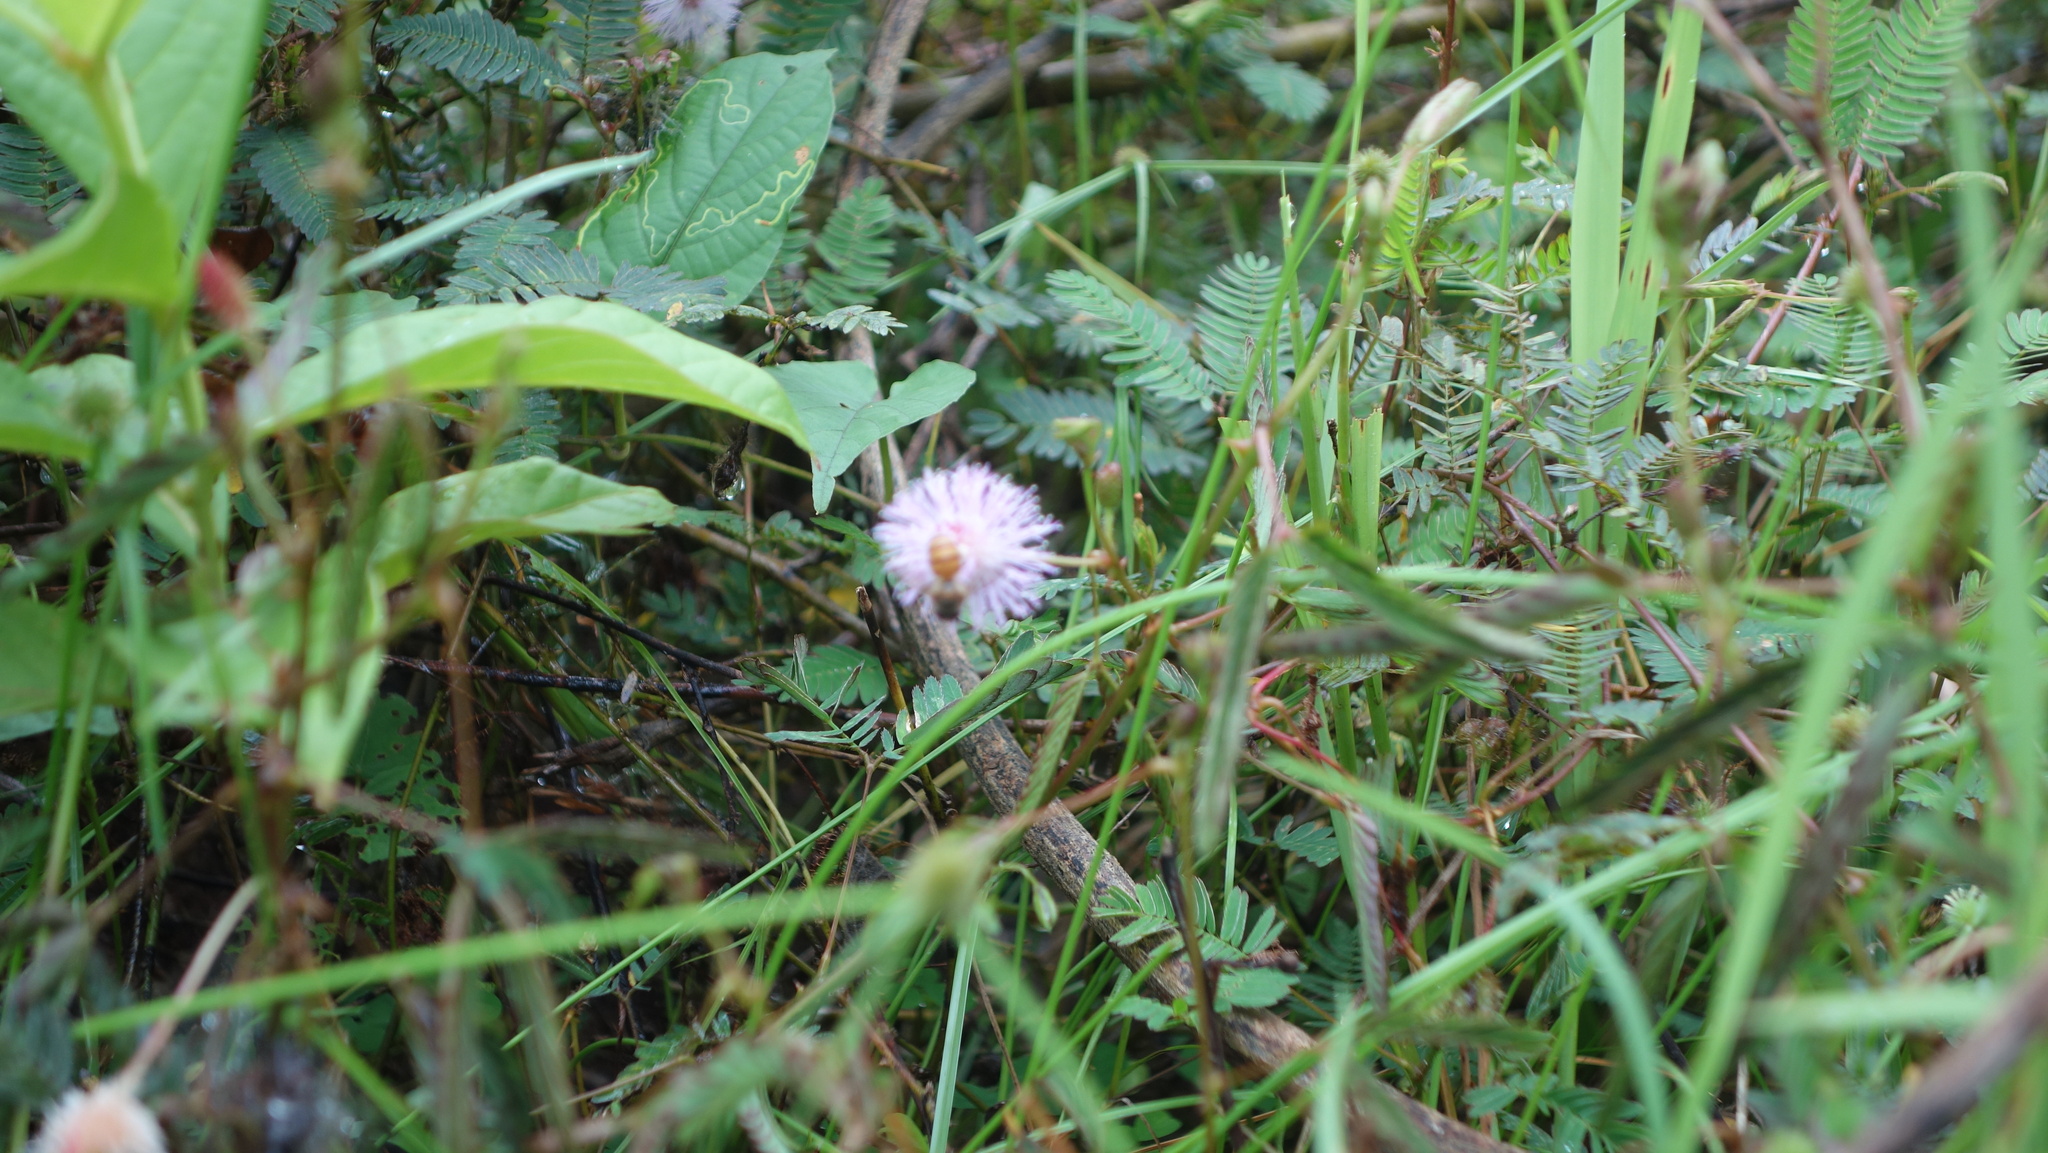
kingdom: Plantae
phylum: Tracheophyta
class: Magnoliopsida
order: Fabales
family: Fabaceae
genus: Mimosa
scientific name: Mimosa pudica
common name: Sensitive plant
